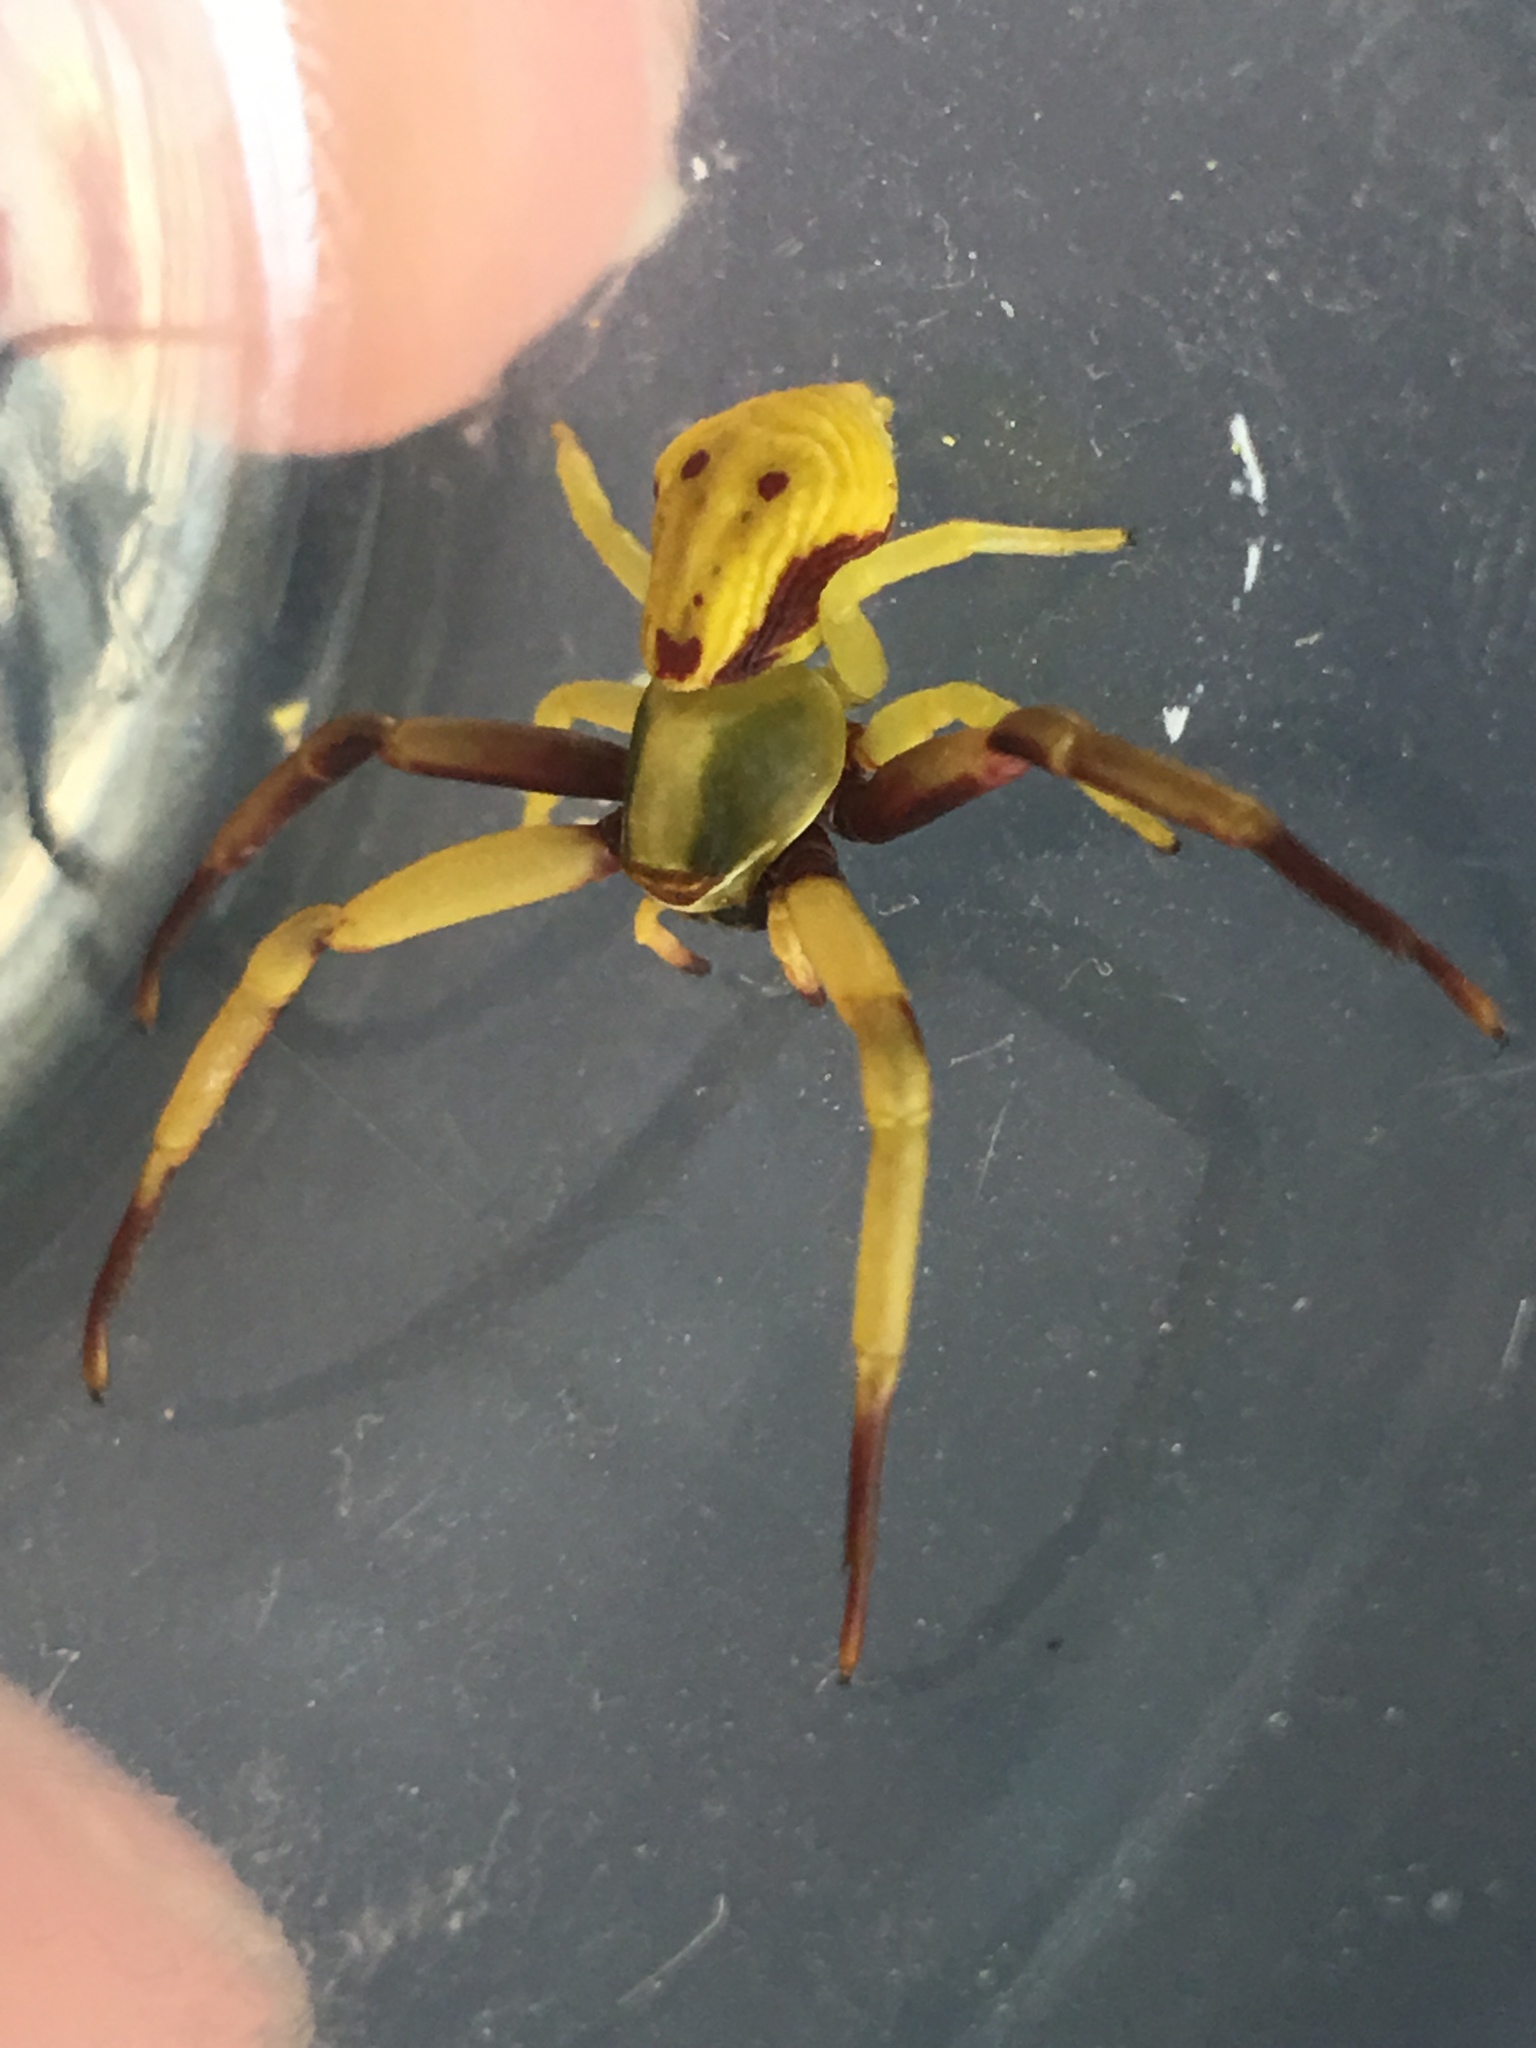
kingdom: Animalia
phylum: Arthropoda
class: Arachnida
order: Araneae
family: Thomisidae
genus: Misumenoides
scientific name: Misumenoides formosipes
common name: White-banded crab spider
